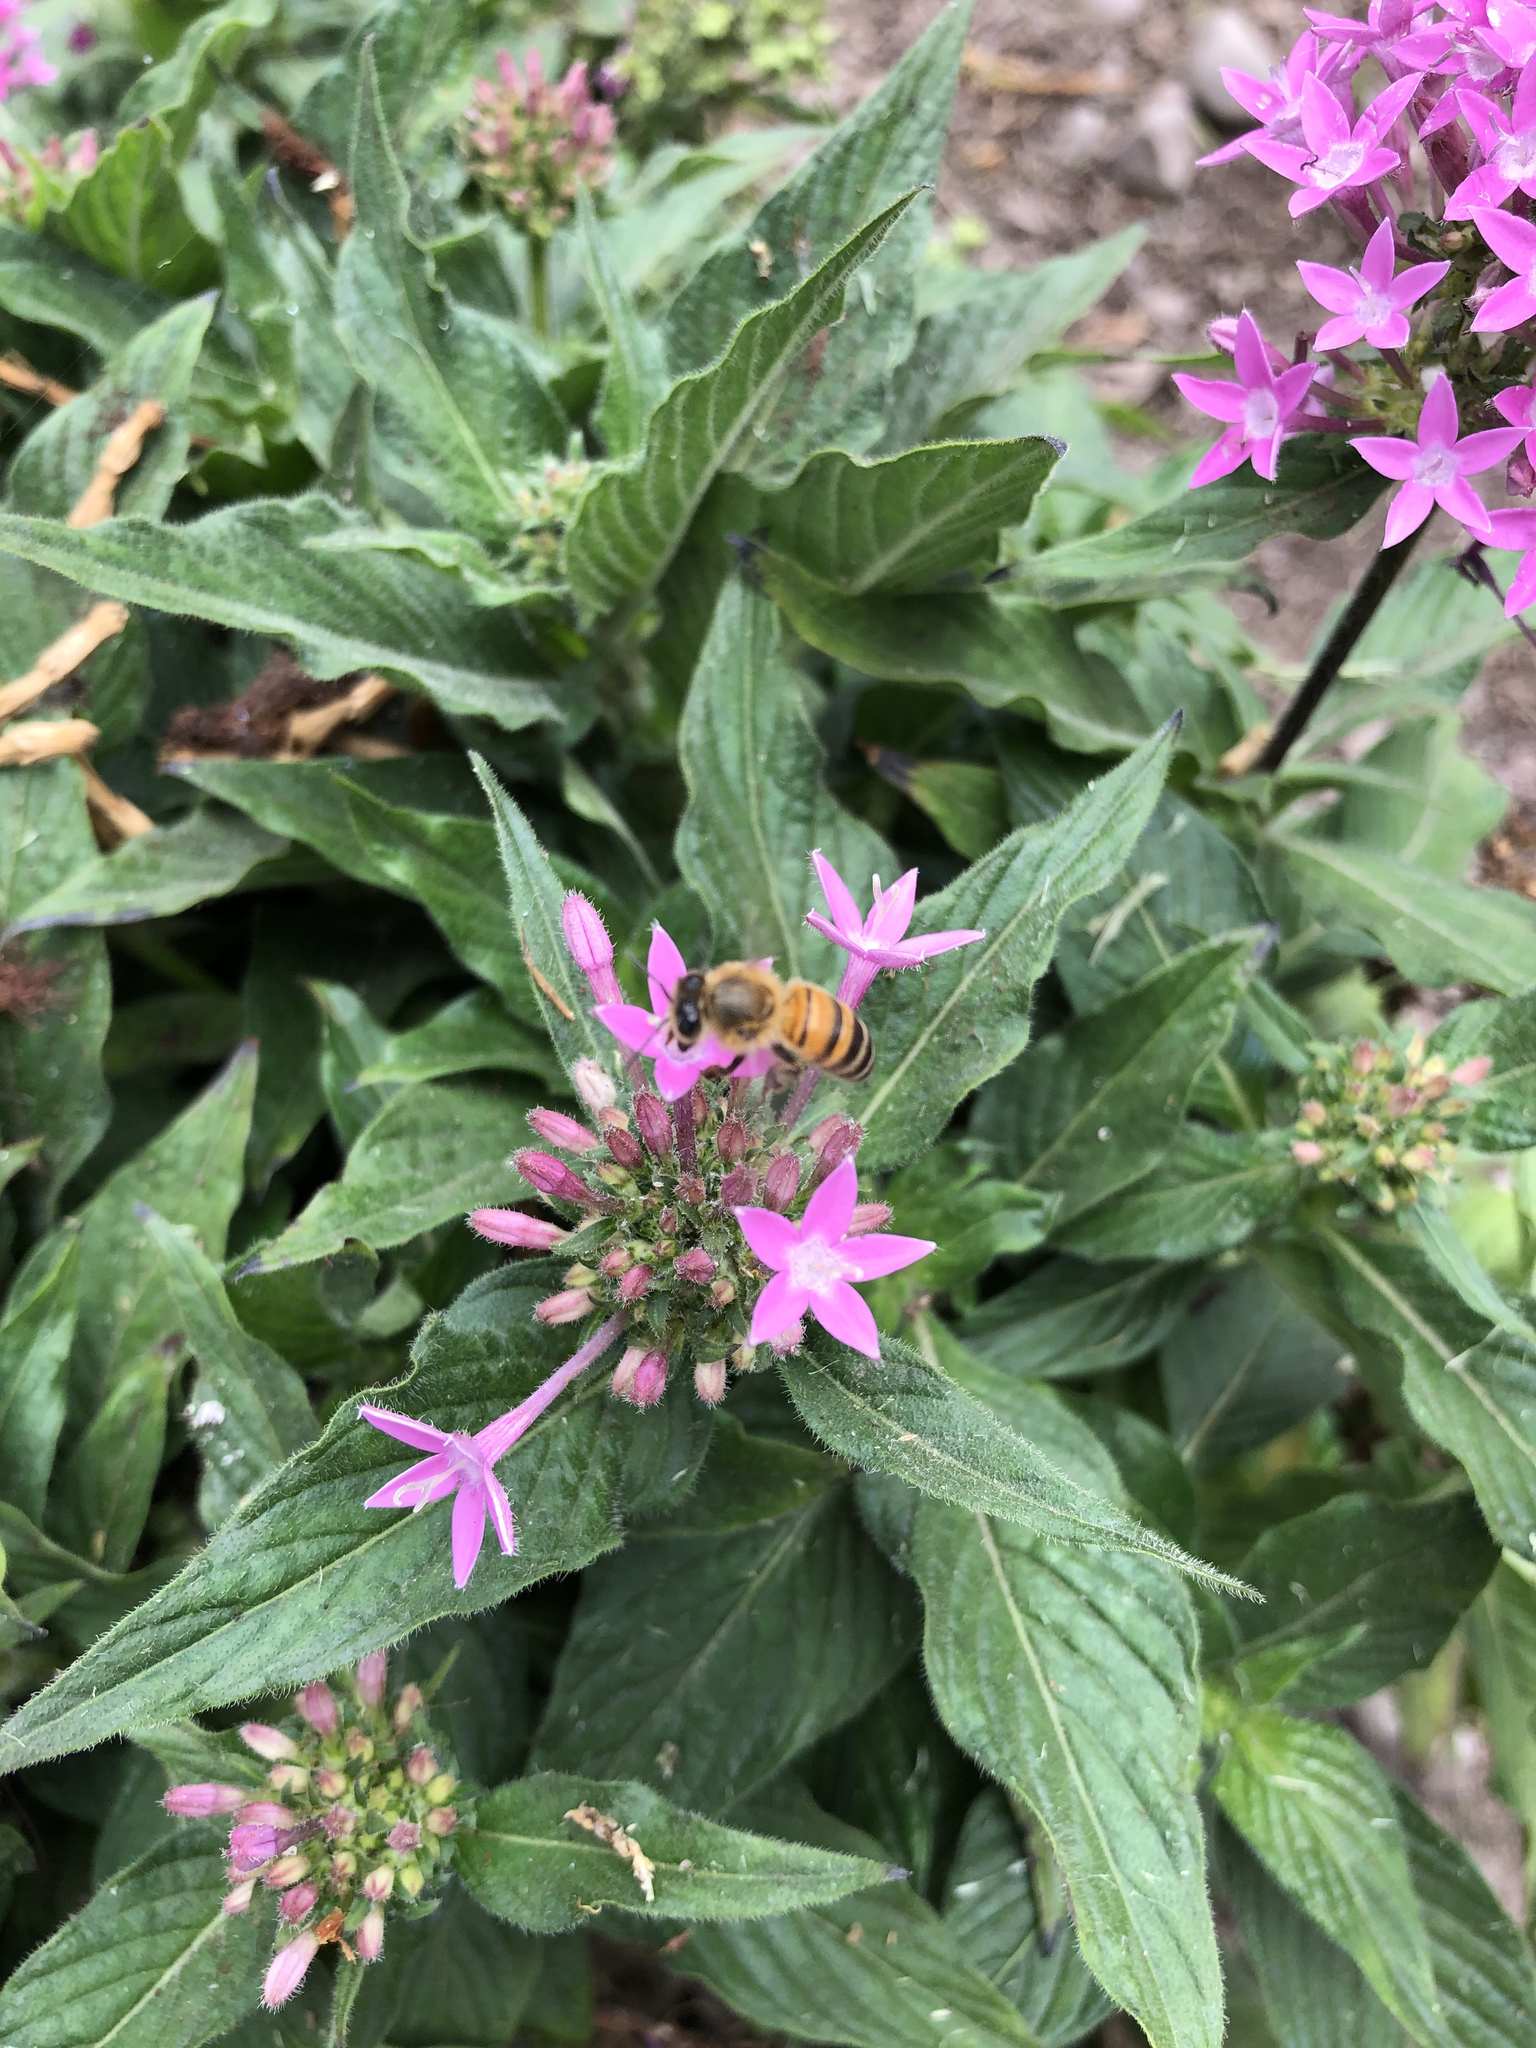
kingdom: Animalia
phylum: Arthropoda
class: Insecta
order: Hymenoptera
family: Apidae
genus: Apis
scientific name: Apis mellifera
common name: Honey bee
